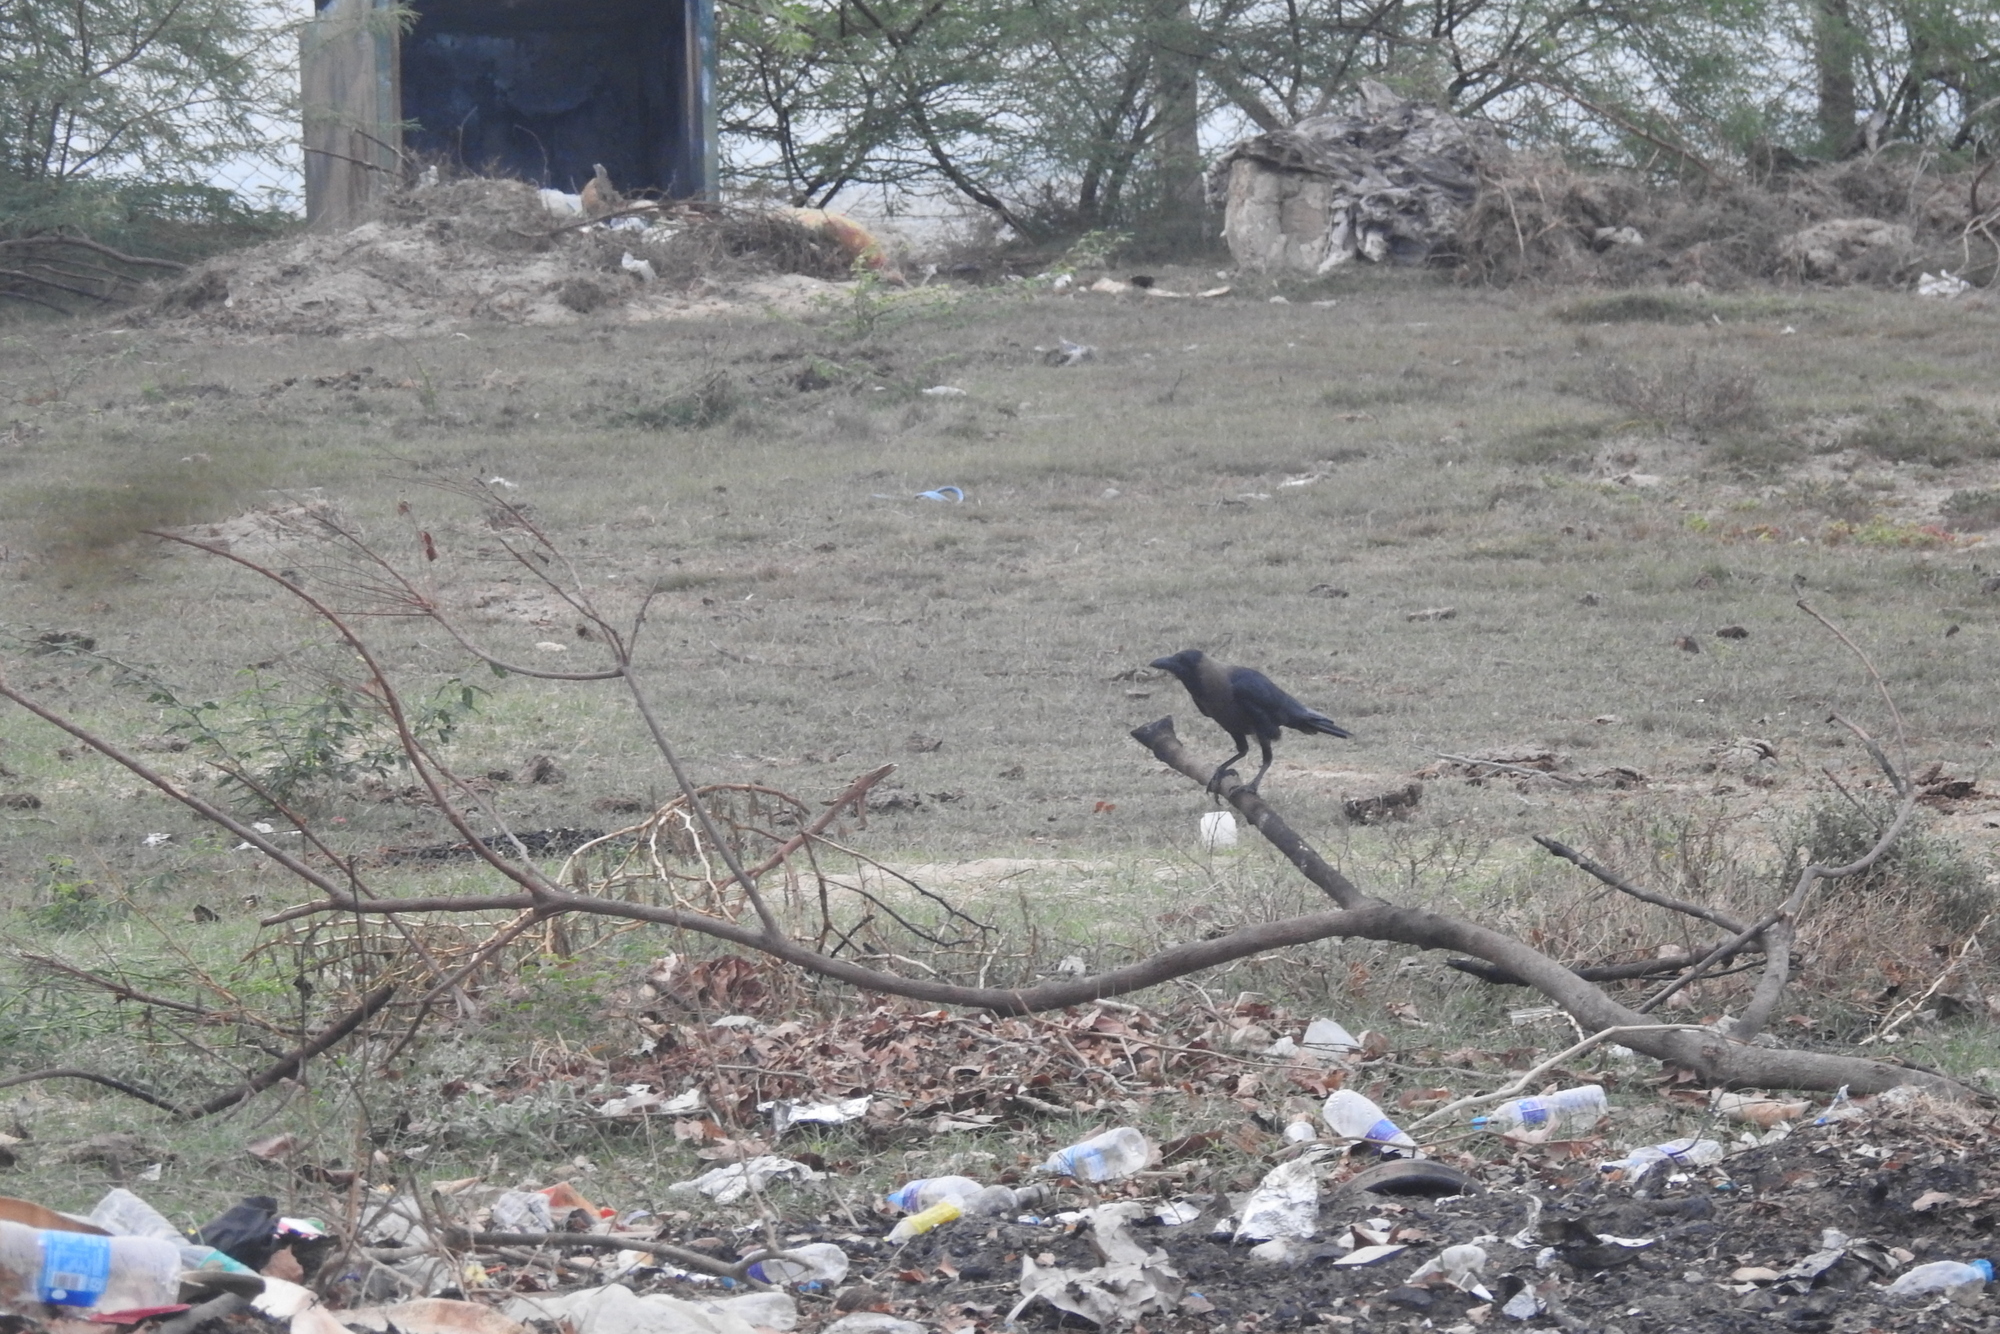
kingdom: Animalia
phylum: Chordata
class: Aves
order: Passeriformes
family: Corvidae
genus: Corvus
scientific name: Corvus splendens
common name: House crow
